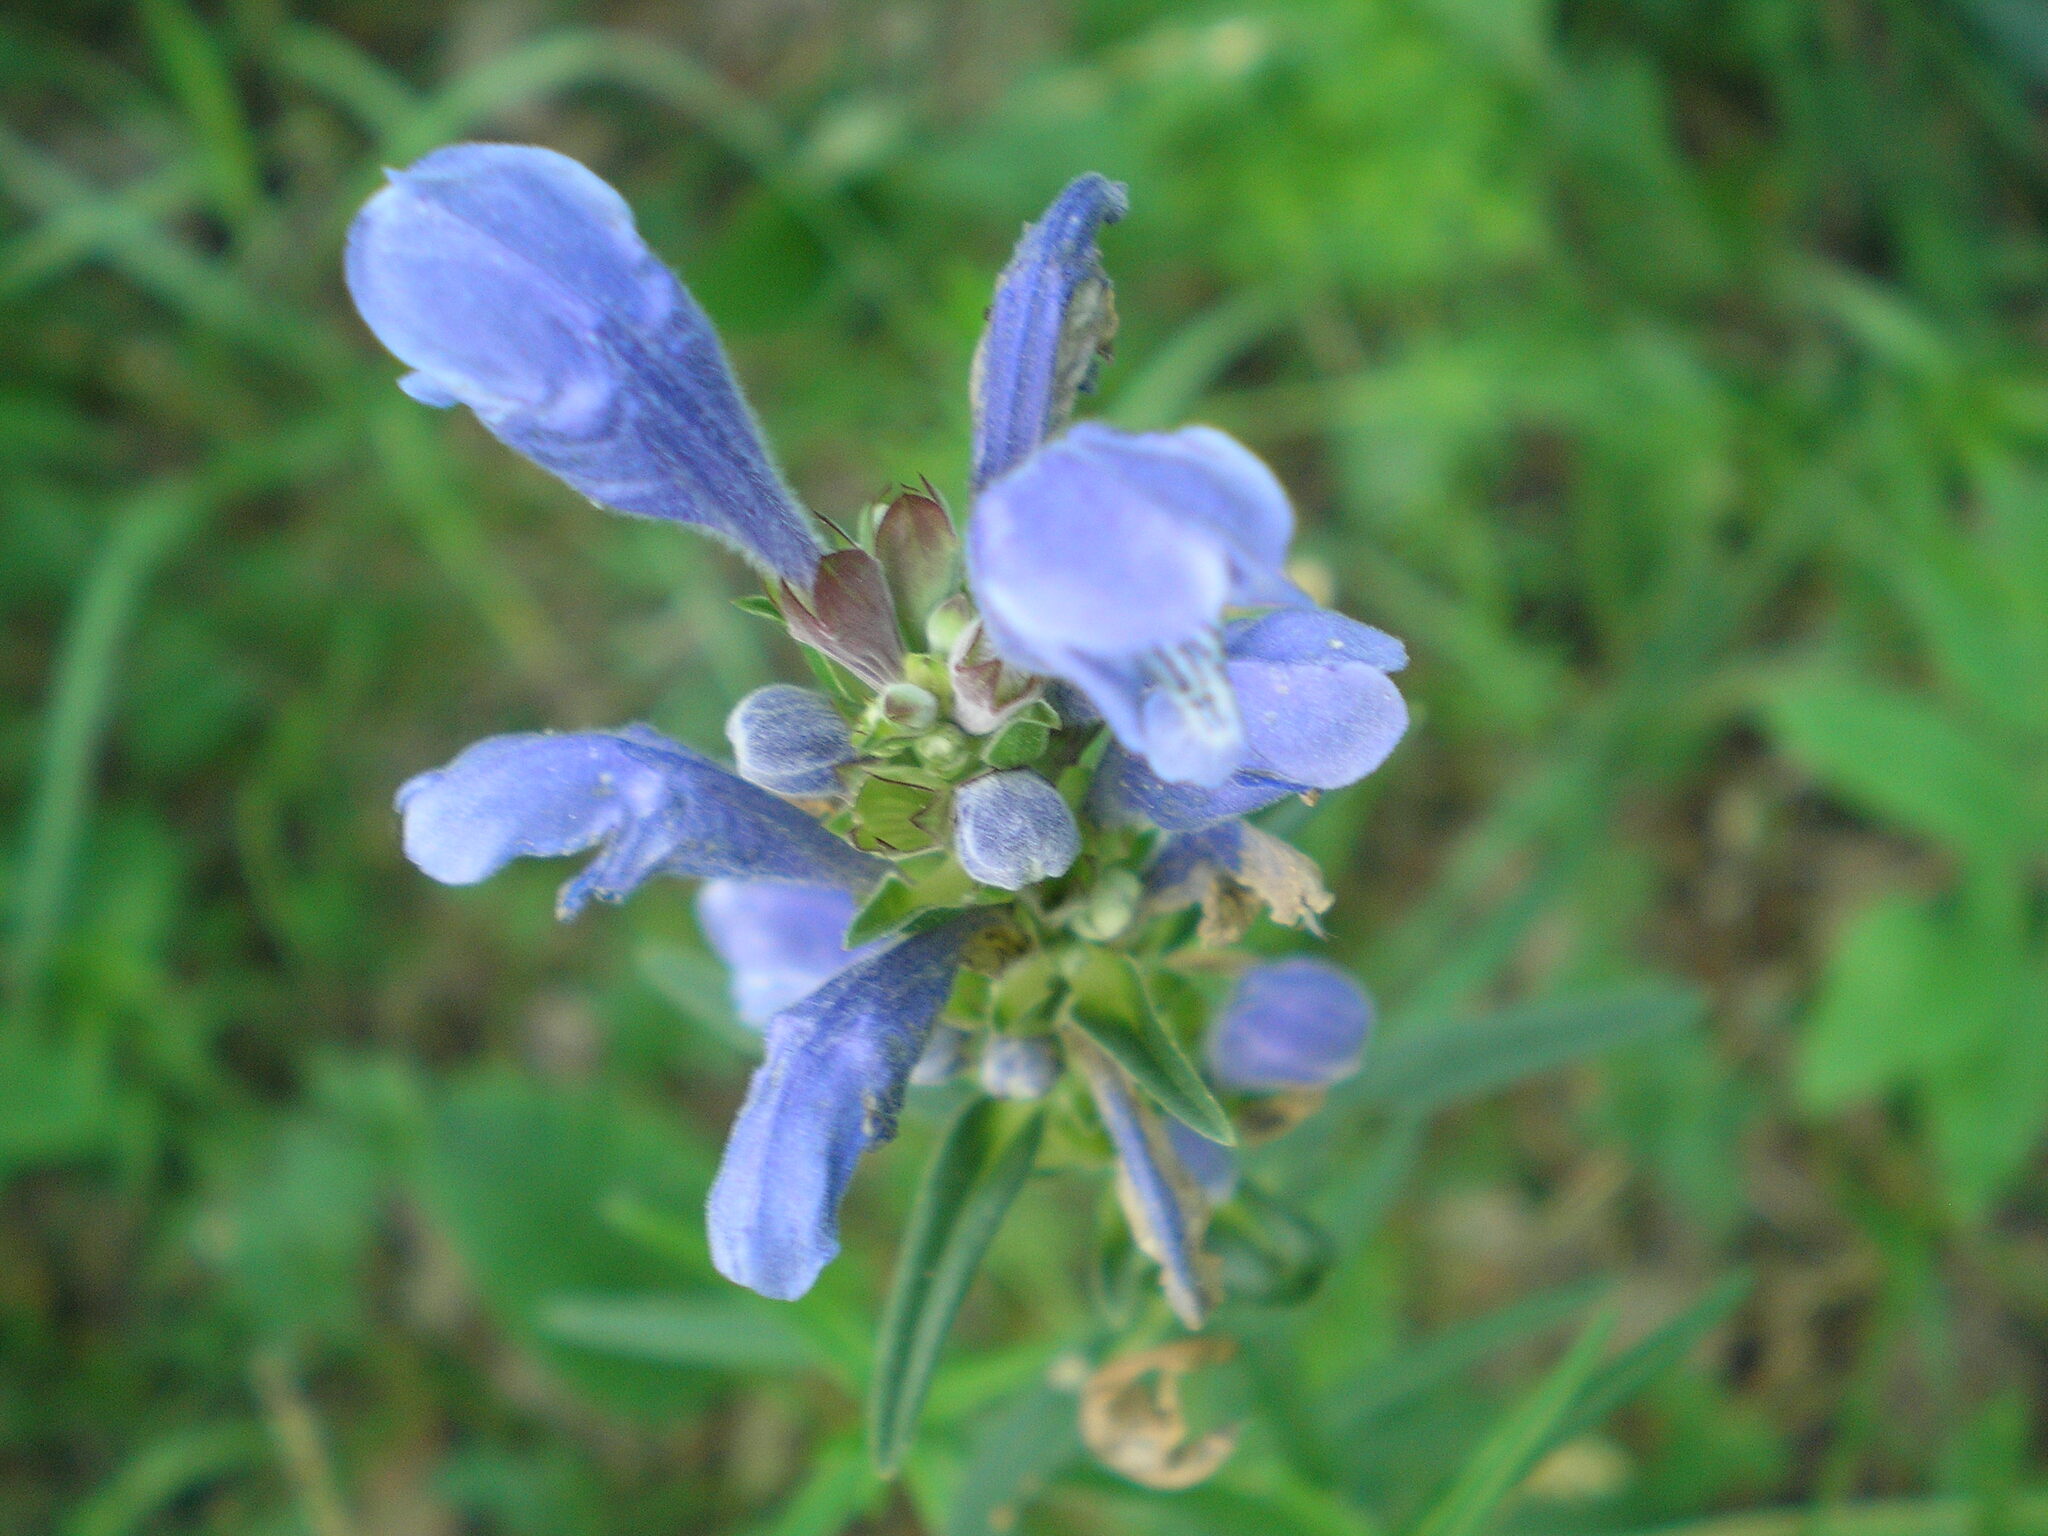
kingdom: Plantae
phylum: Tracheophyta
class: Magnoliopsida
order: Lamiales
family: Lamiaceae
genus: Dracocephalum
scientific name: Dracocephalum ruyschiana
